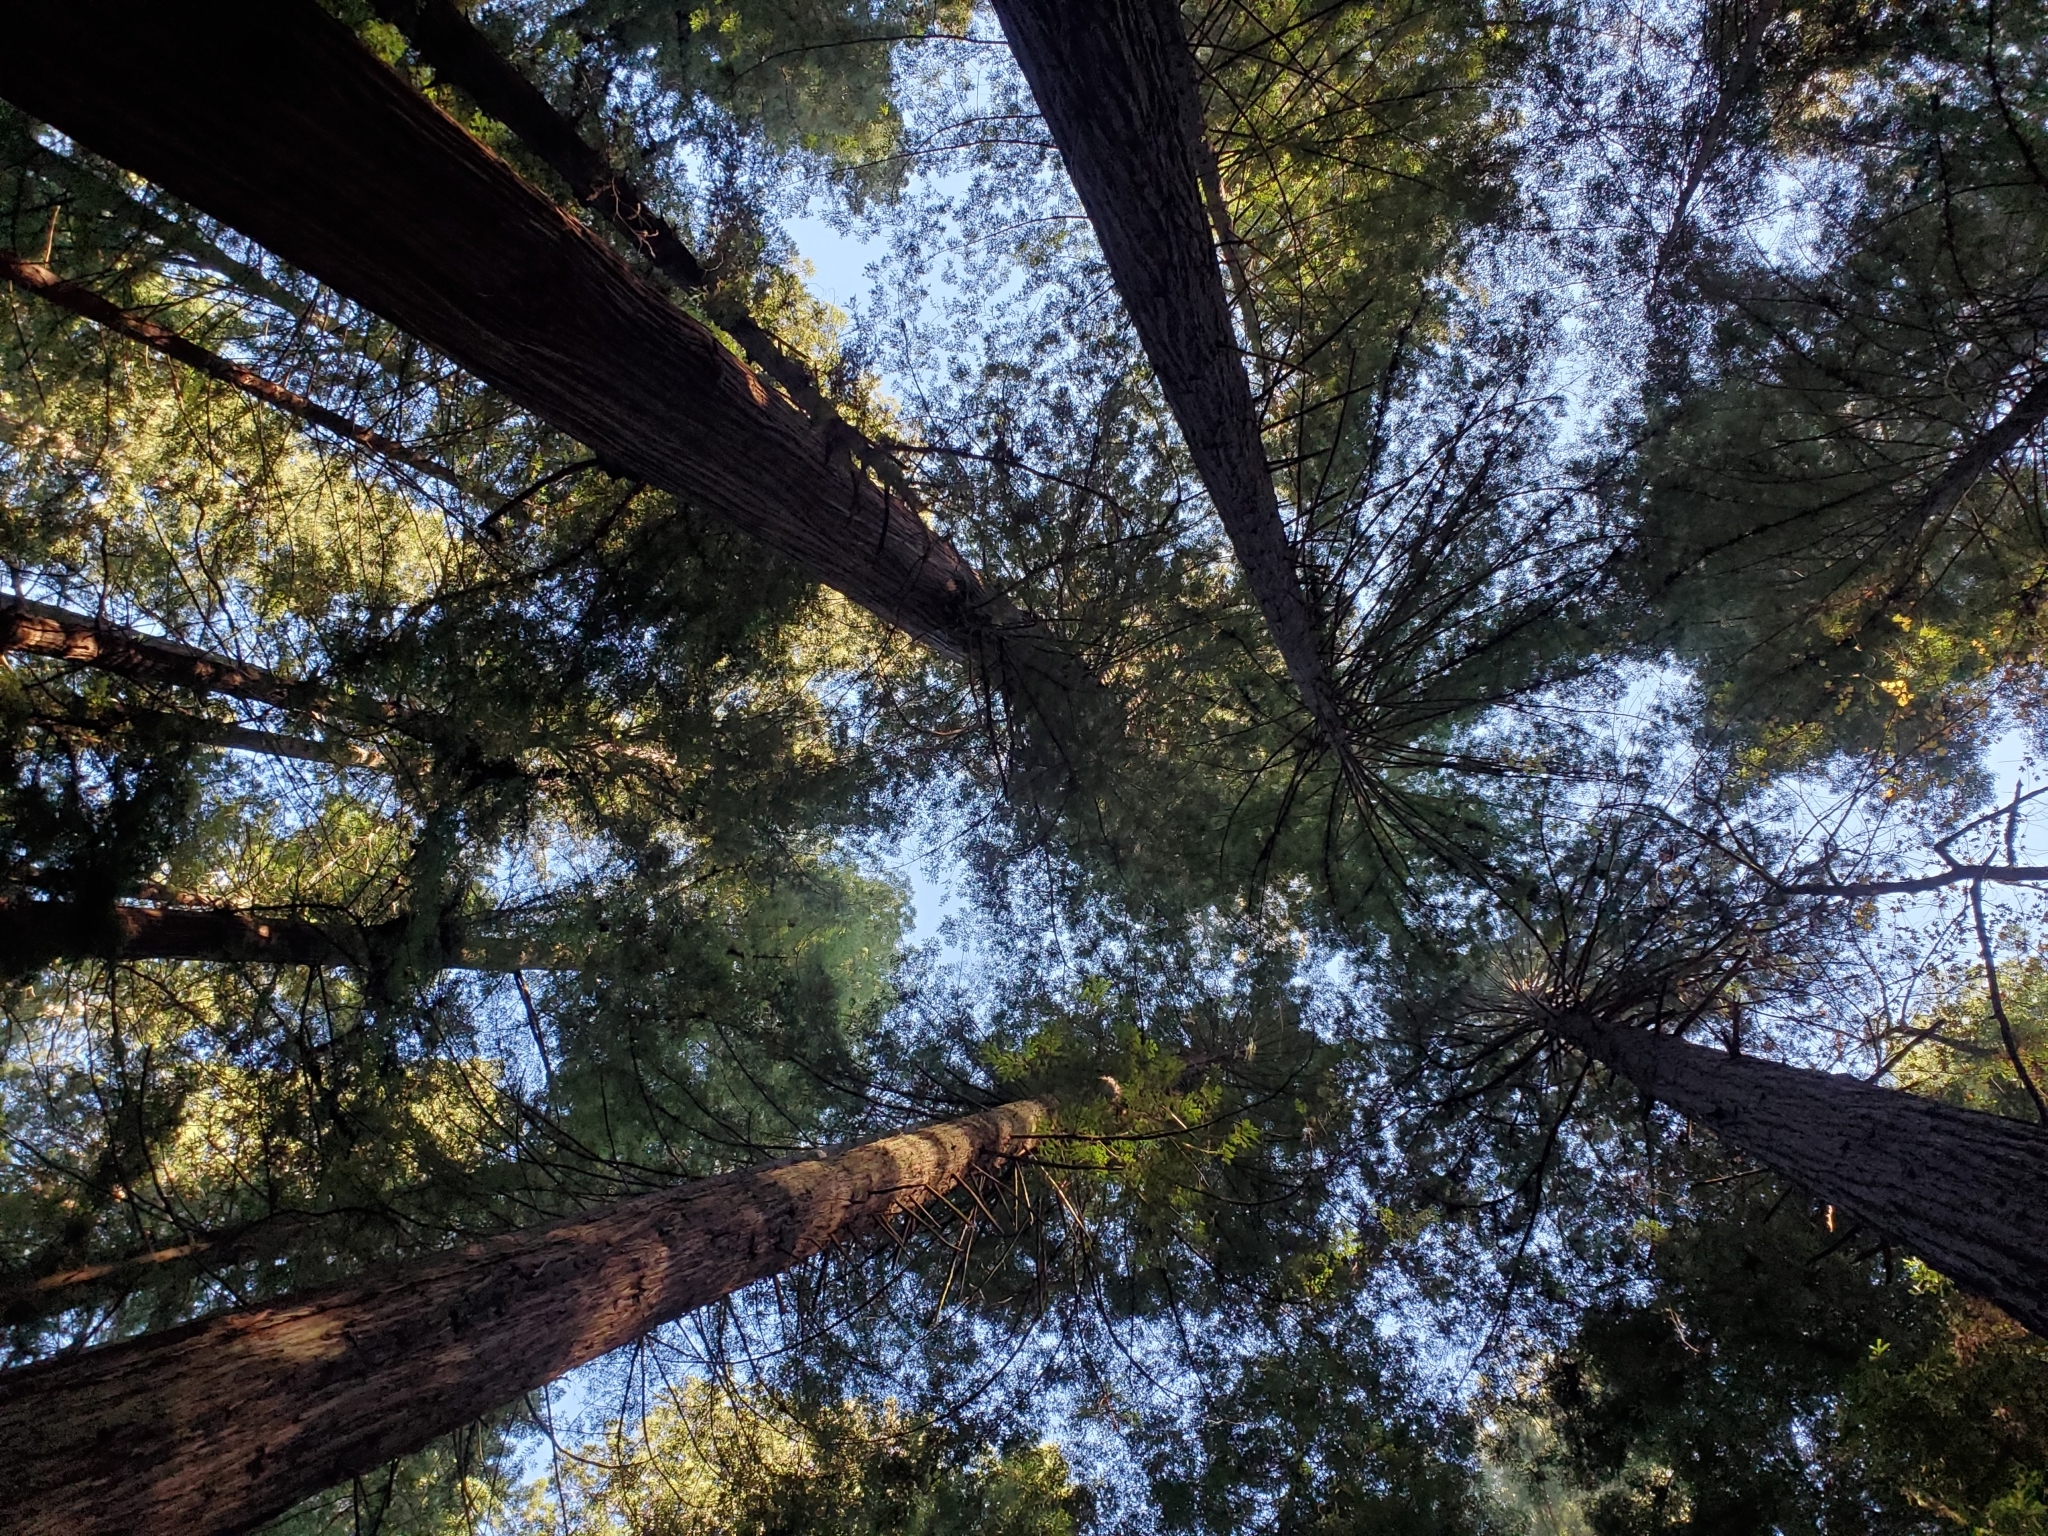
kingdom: Plantae
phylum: Tracheophyta
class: Pinopsida
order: Pinales
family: Cupressaceae
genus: Sequoia
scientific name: Sequoia sempervirens
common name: Coast redwood
